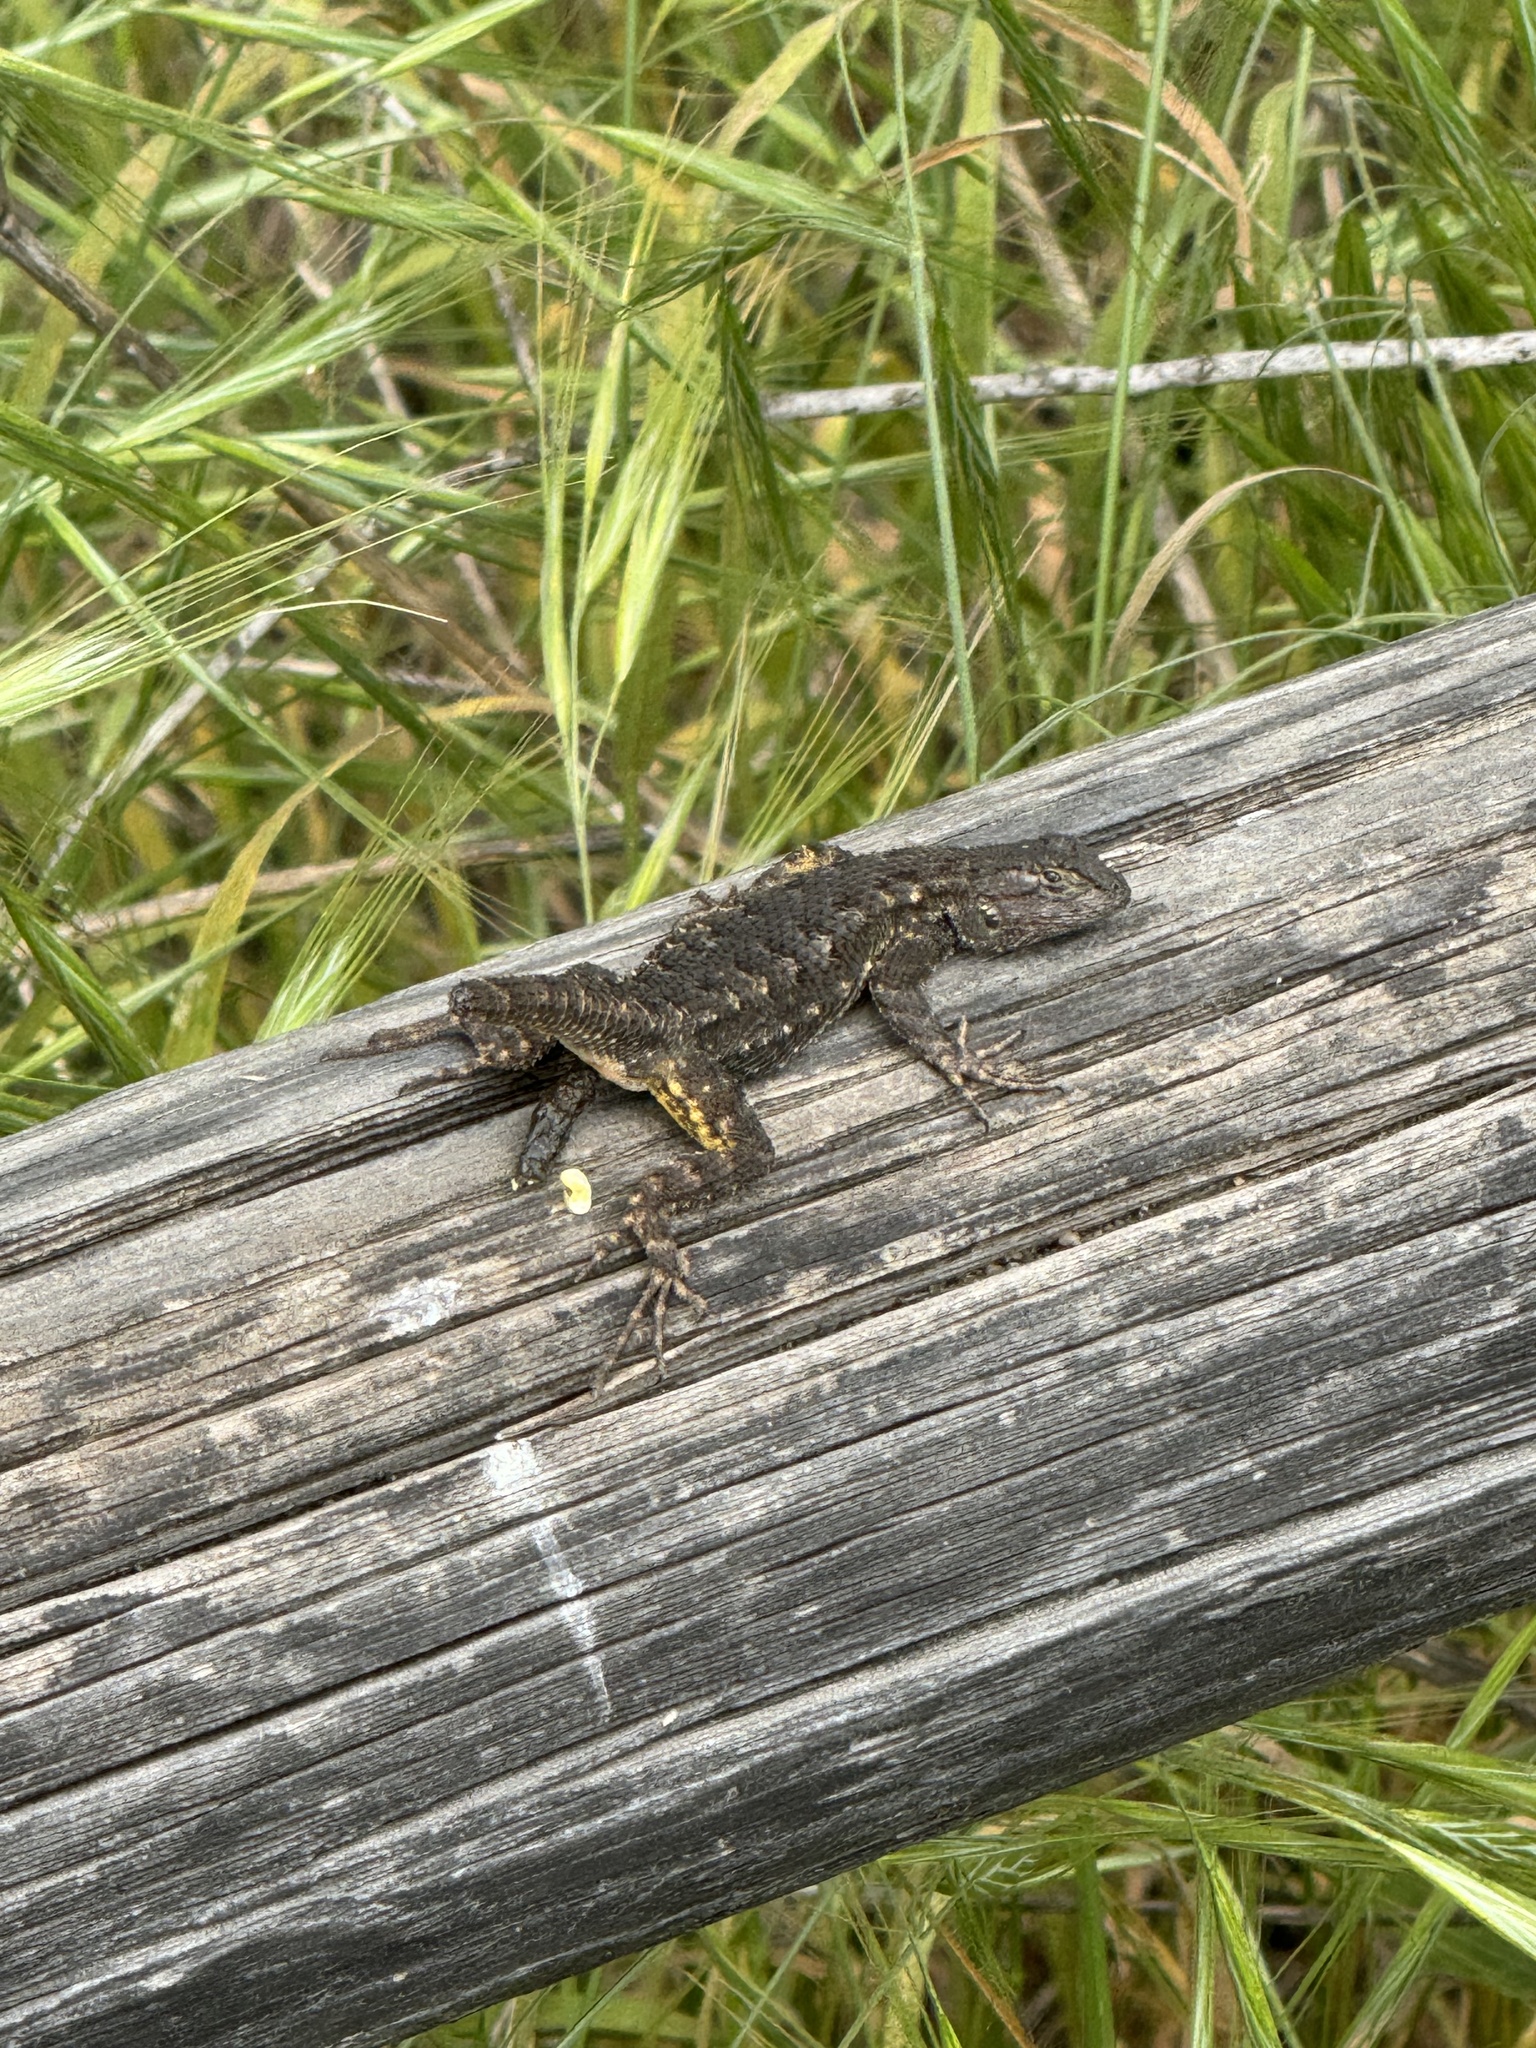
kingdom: Animalia
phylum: Chordata
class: Squamata
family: Phrynosomatidae
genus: Sceloporus
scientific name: Sceloporus occidentalis
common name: Western fence lizard
